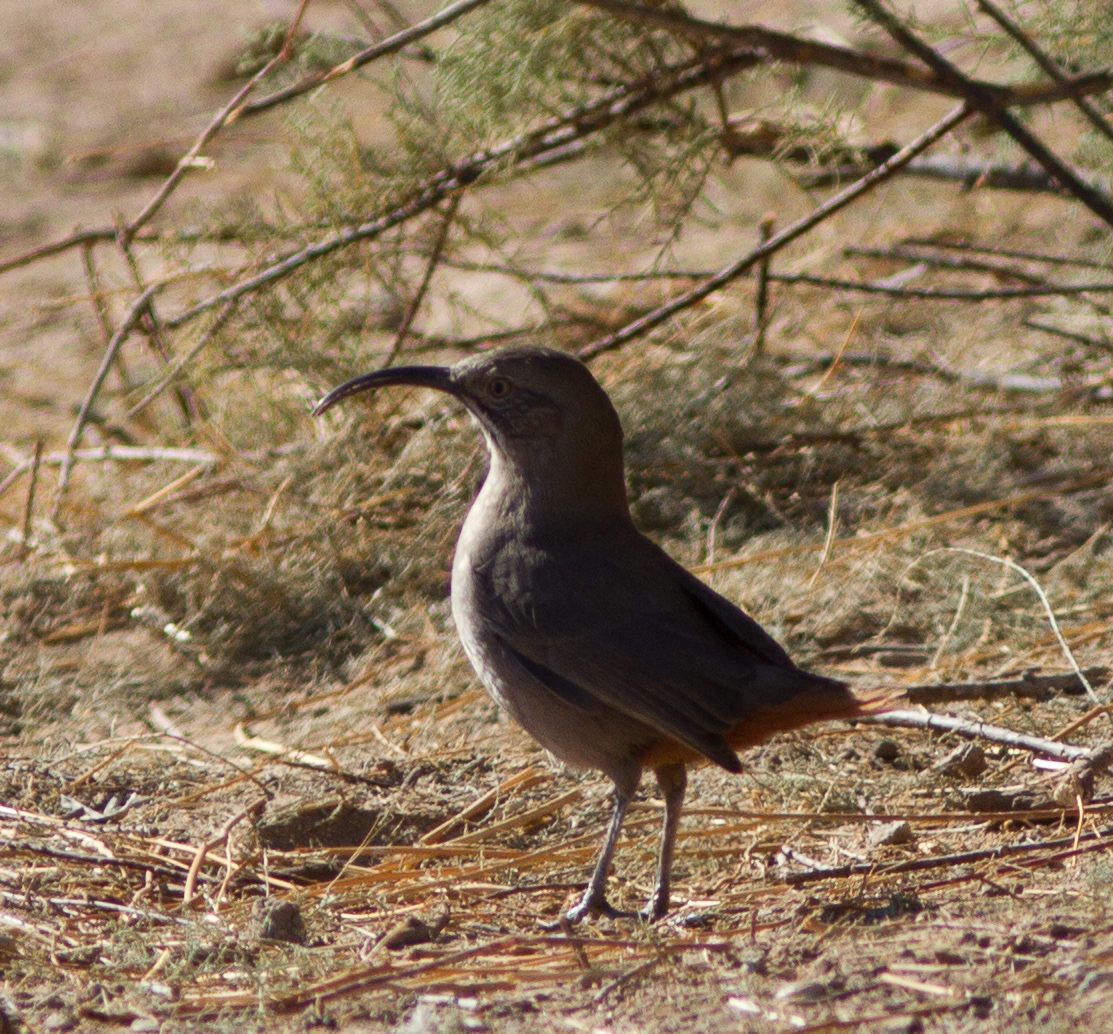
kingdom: Animalia
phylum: Chordata
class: Aves
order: Passeriformes
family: Mimidae
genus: Toxostoma
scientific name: Toxostoma crissale
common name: Crissal thrasher
